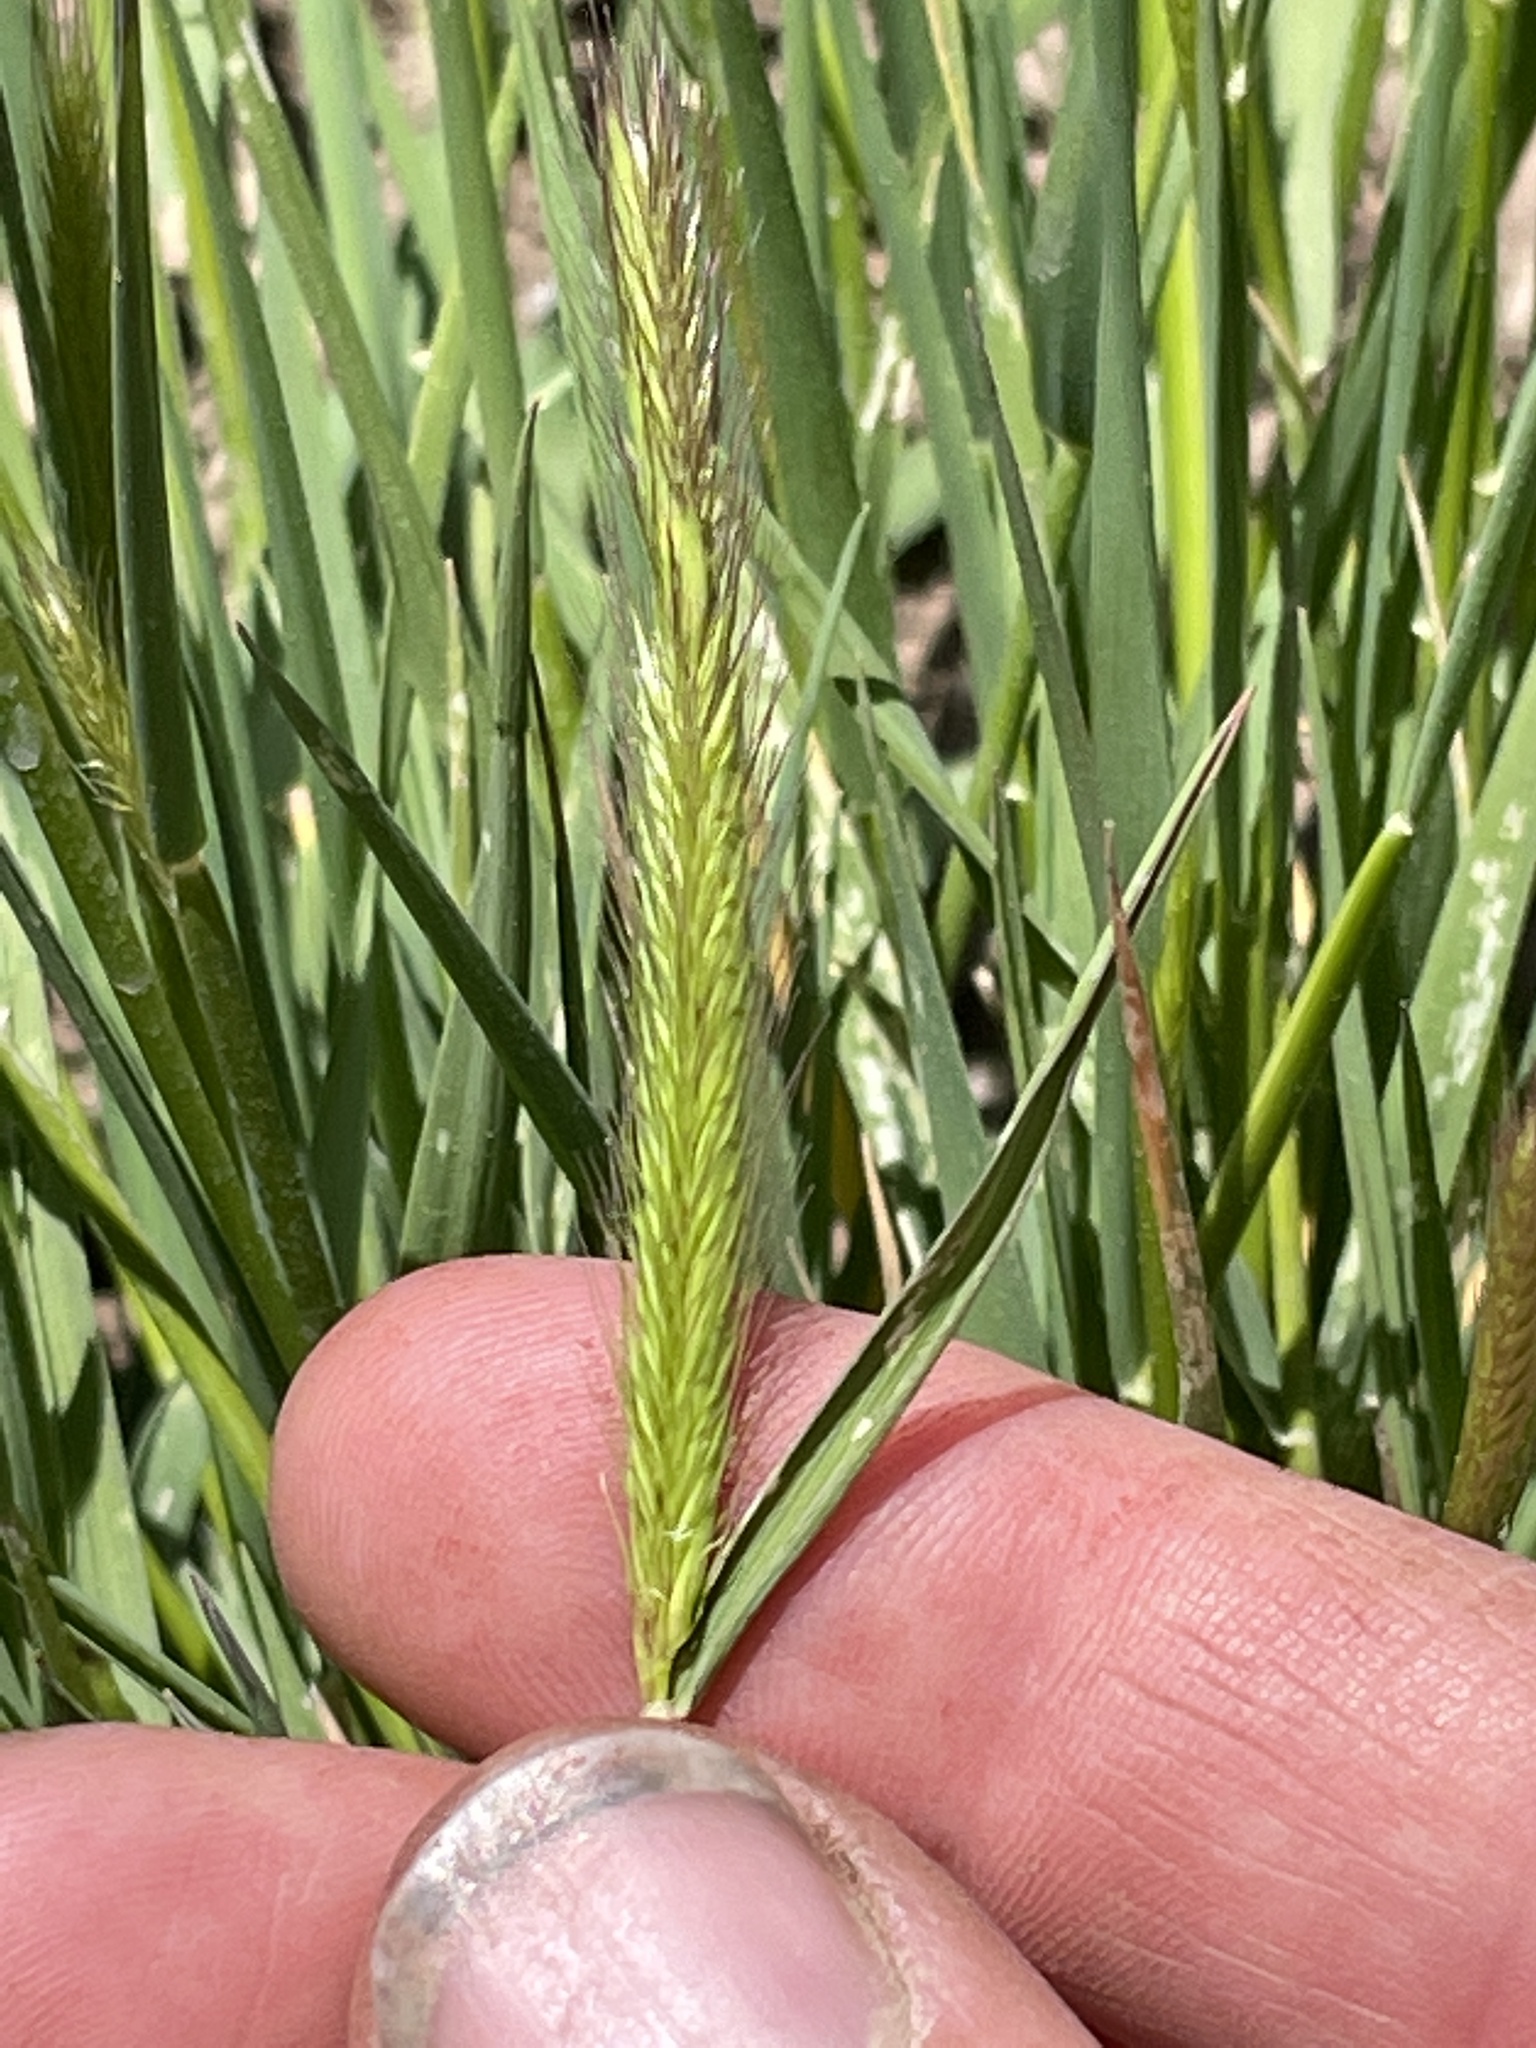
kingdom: Plantae
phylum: Tracheophyta
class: Liliopsida
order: Poales
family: Poaceae
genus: Hordeum
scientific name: Hordeum brachyantherum
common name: Meadow barley
